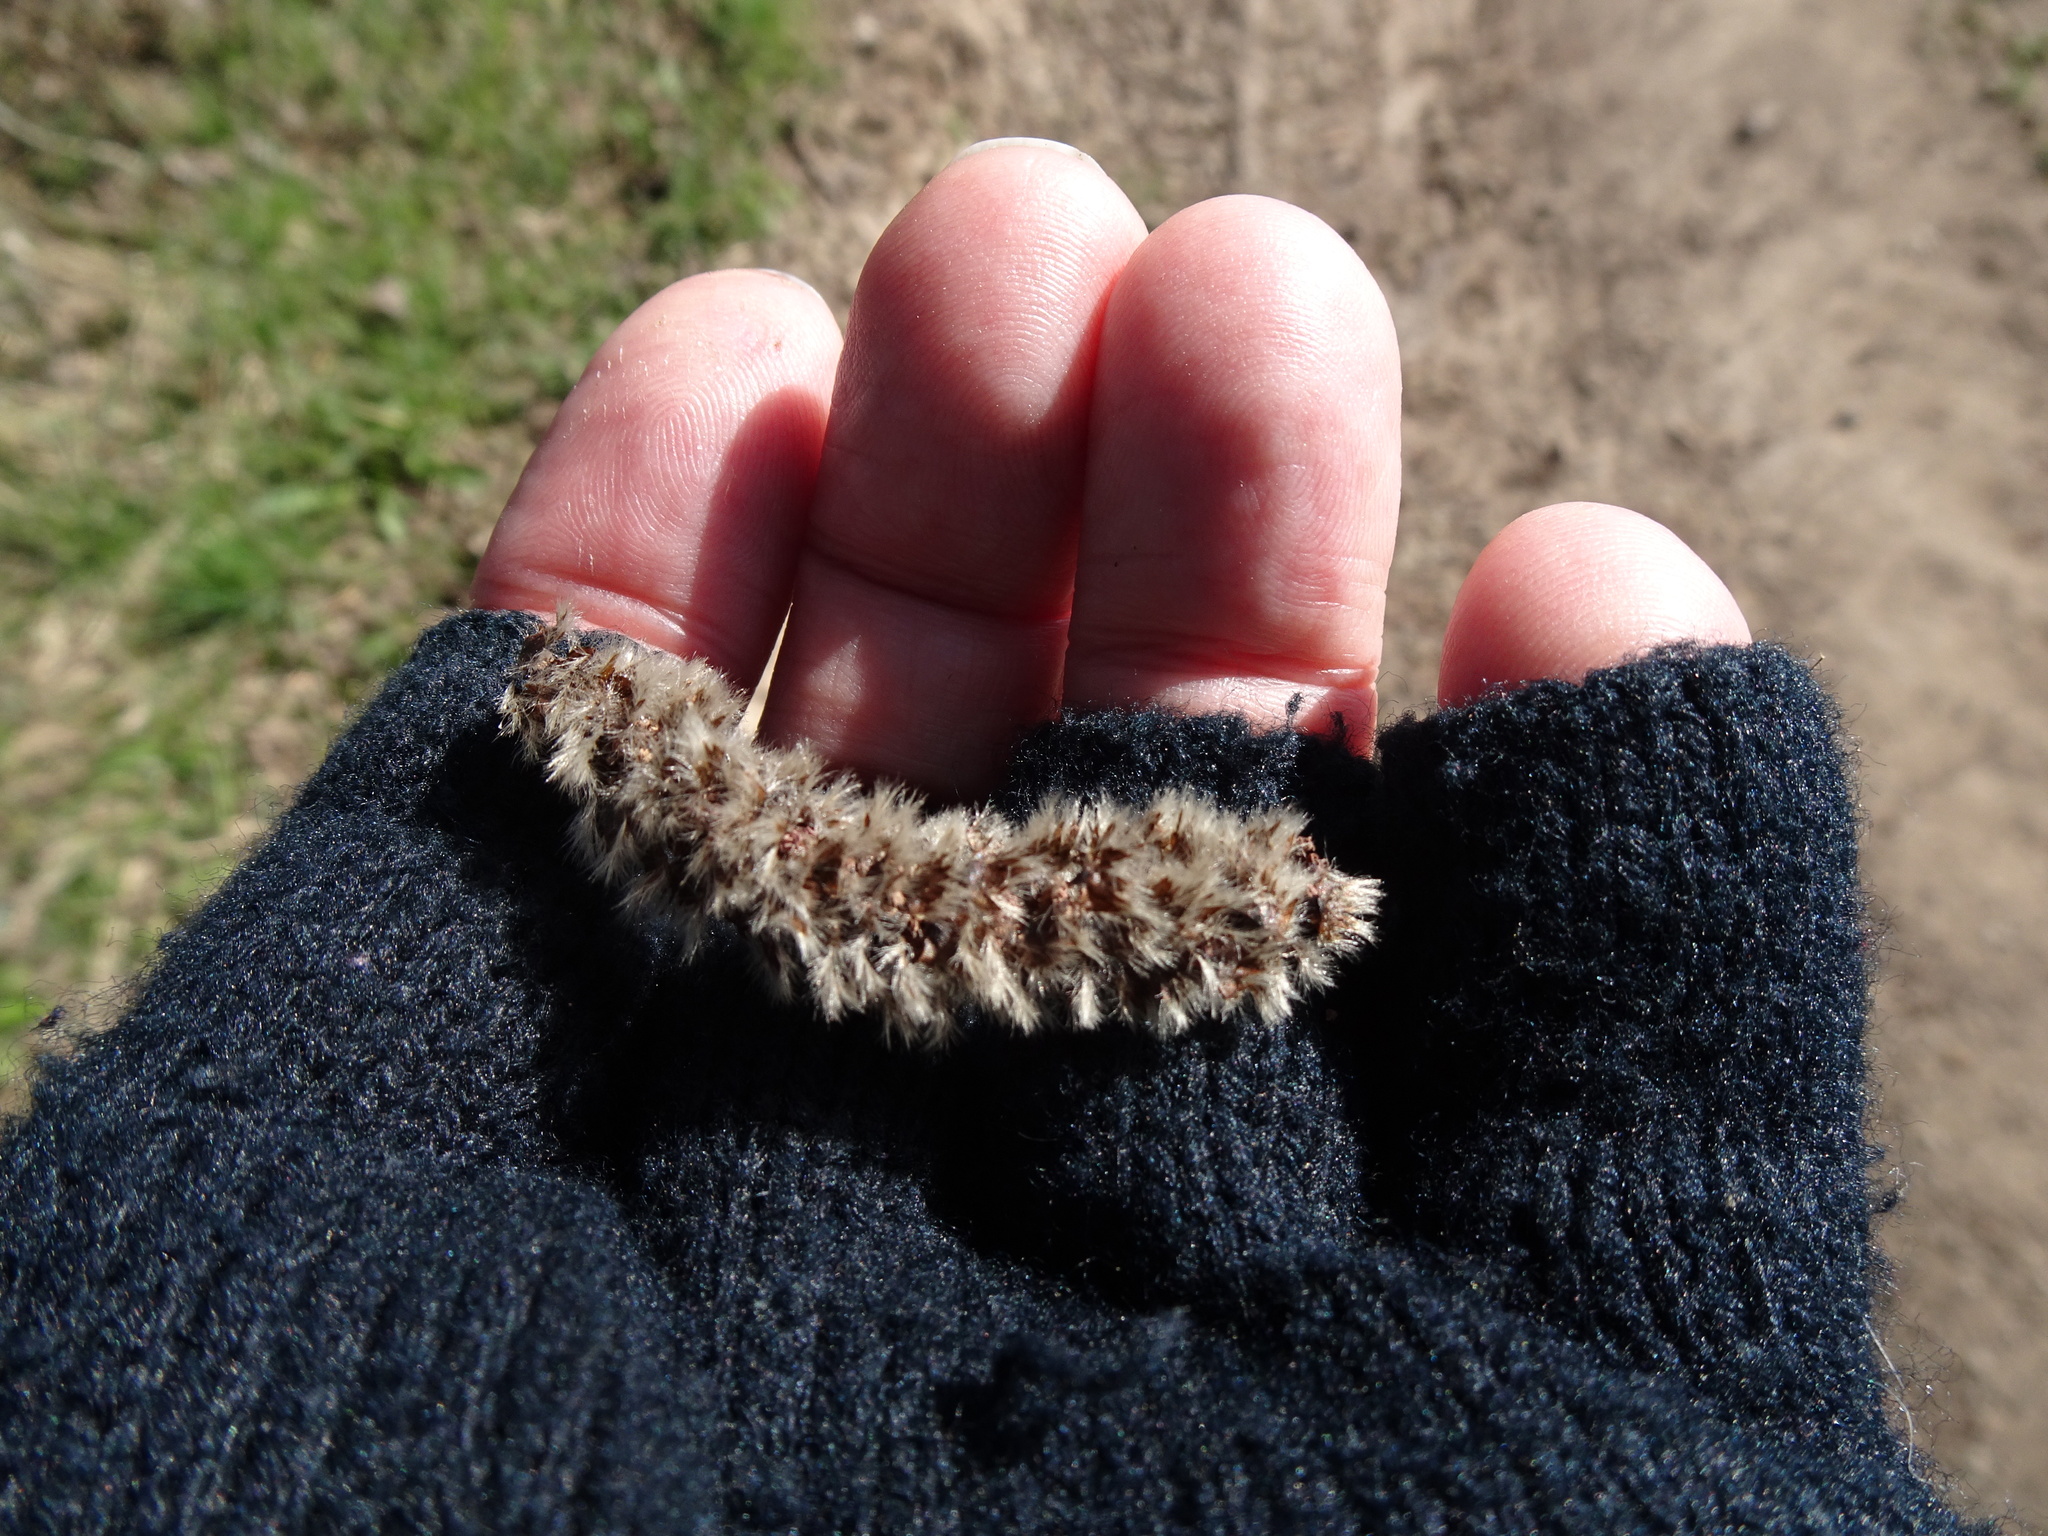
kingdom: Plantae
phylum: Tracheophyta
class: Magnoliopsida
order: Malpighiales
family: Salicaceae
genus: Populus
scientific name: Populus tremula
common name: European aspen
